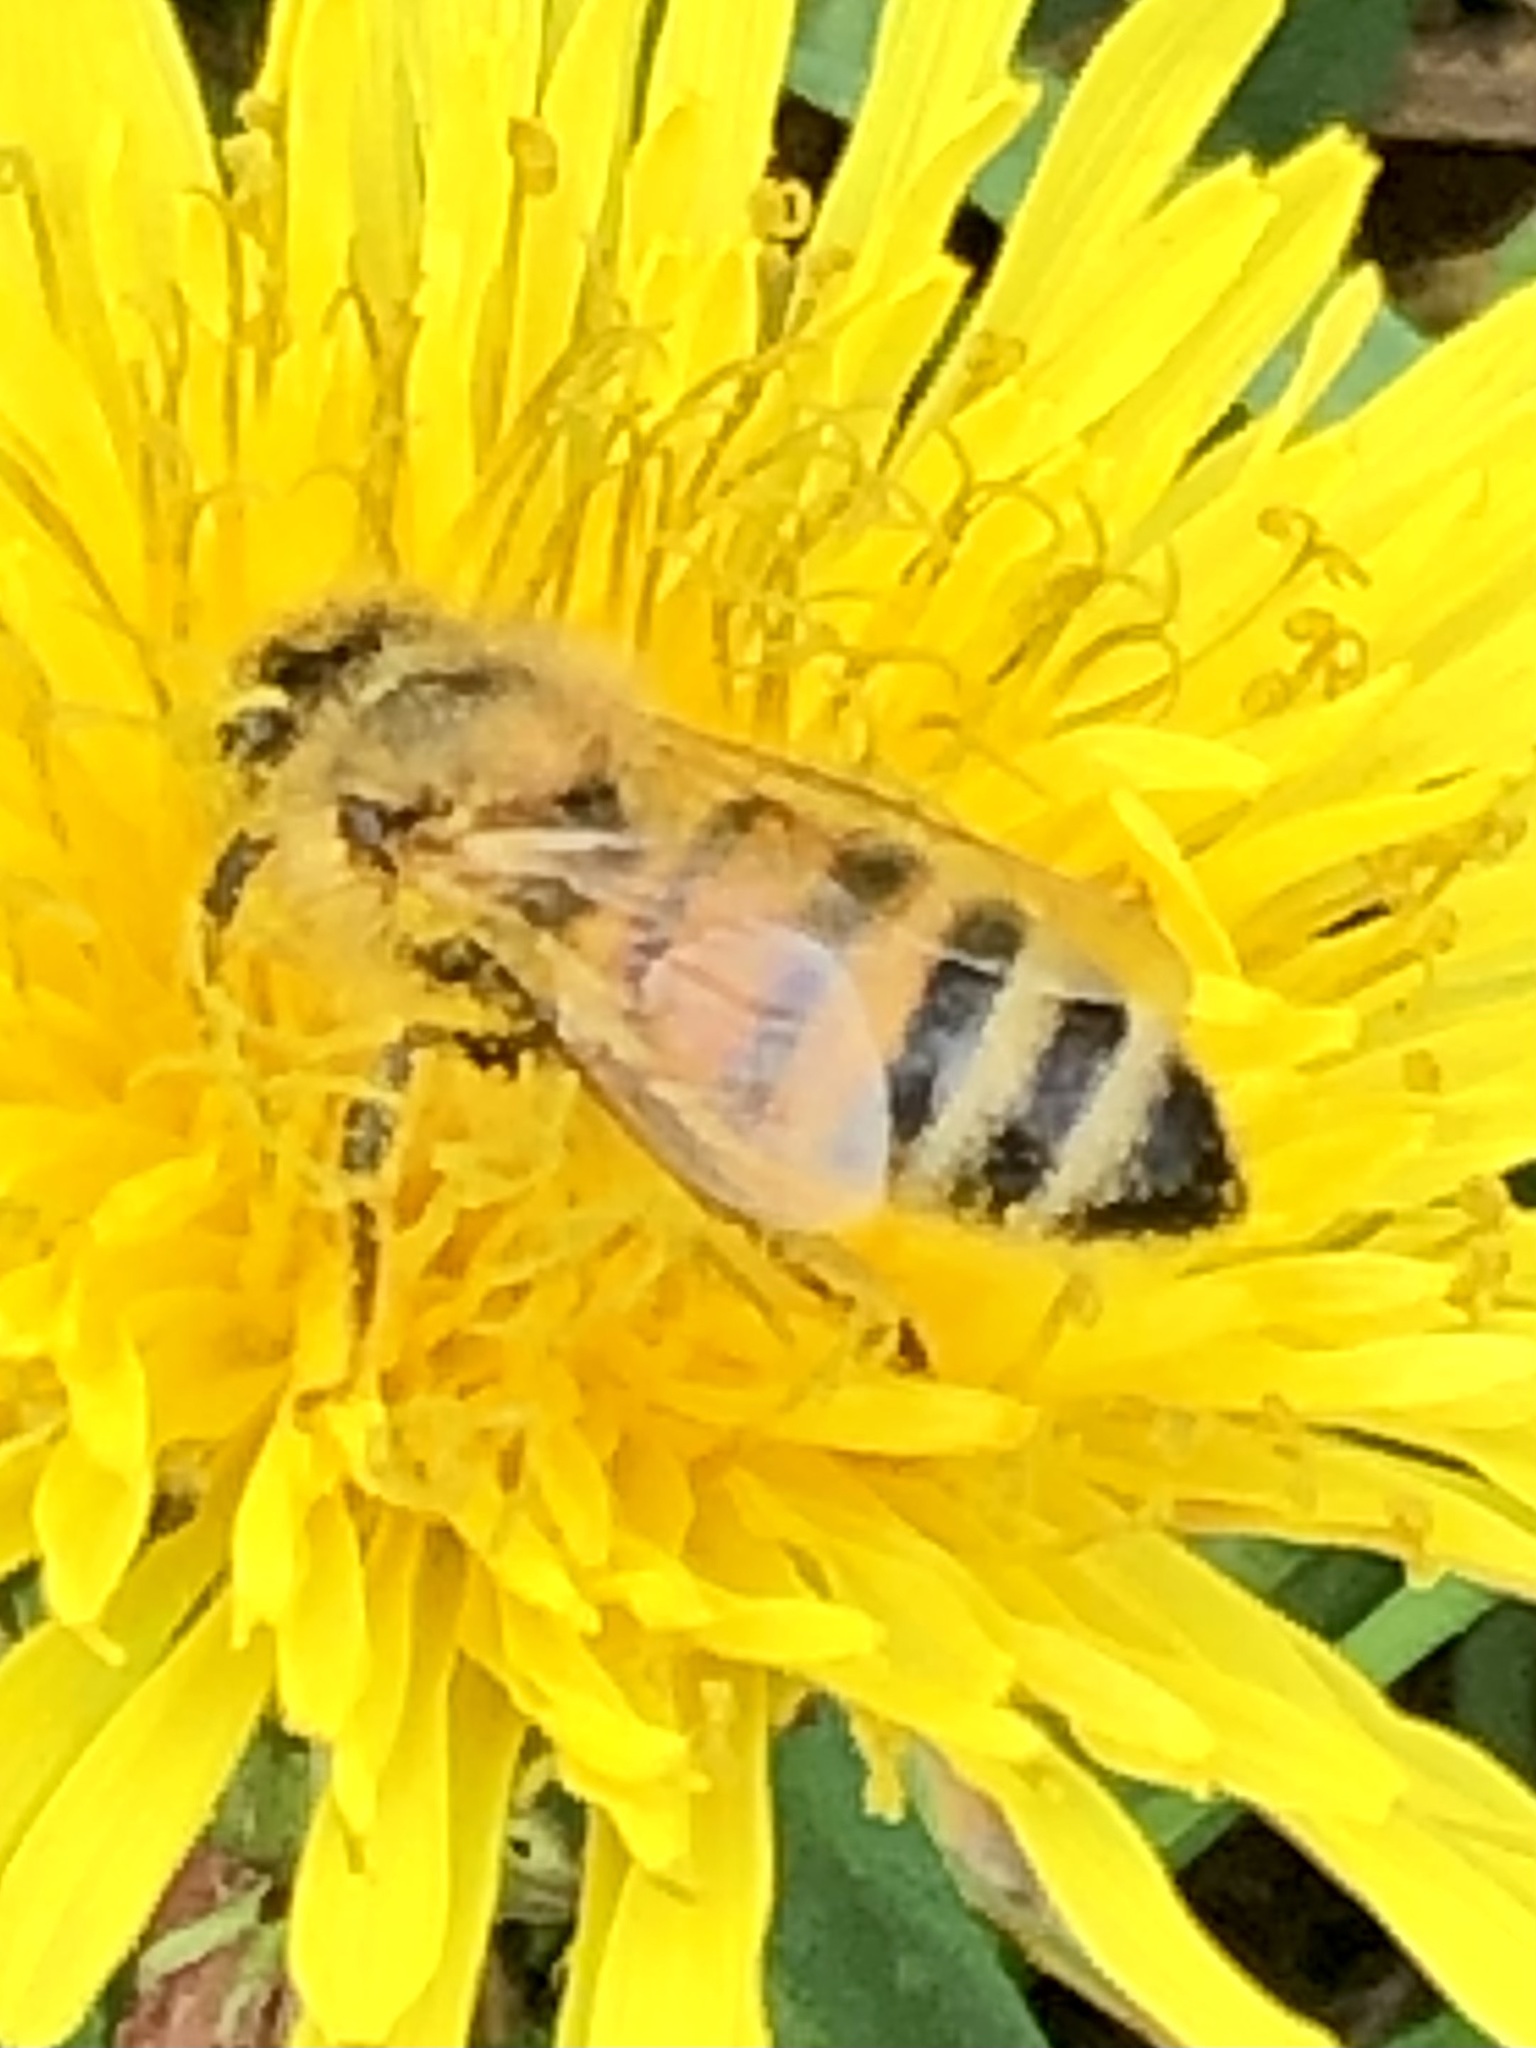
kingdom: Animalia
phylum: Arthropoda
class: Insecta
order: Hymenoptera
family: Apidae
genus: Apis
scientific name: Apis mellifera
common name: Honey bee
